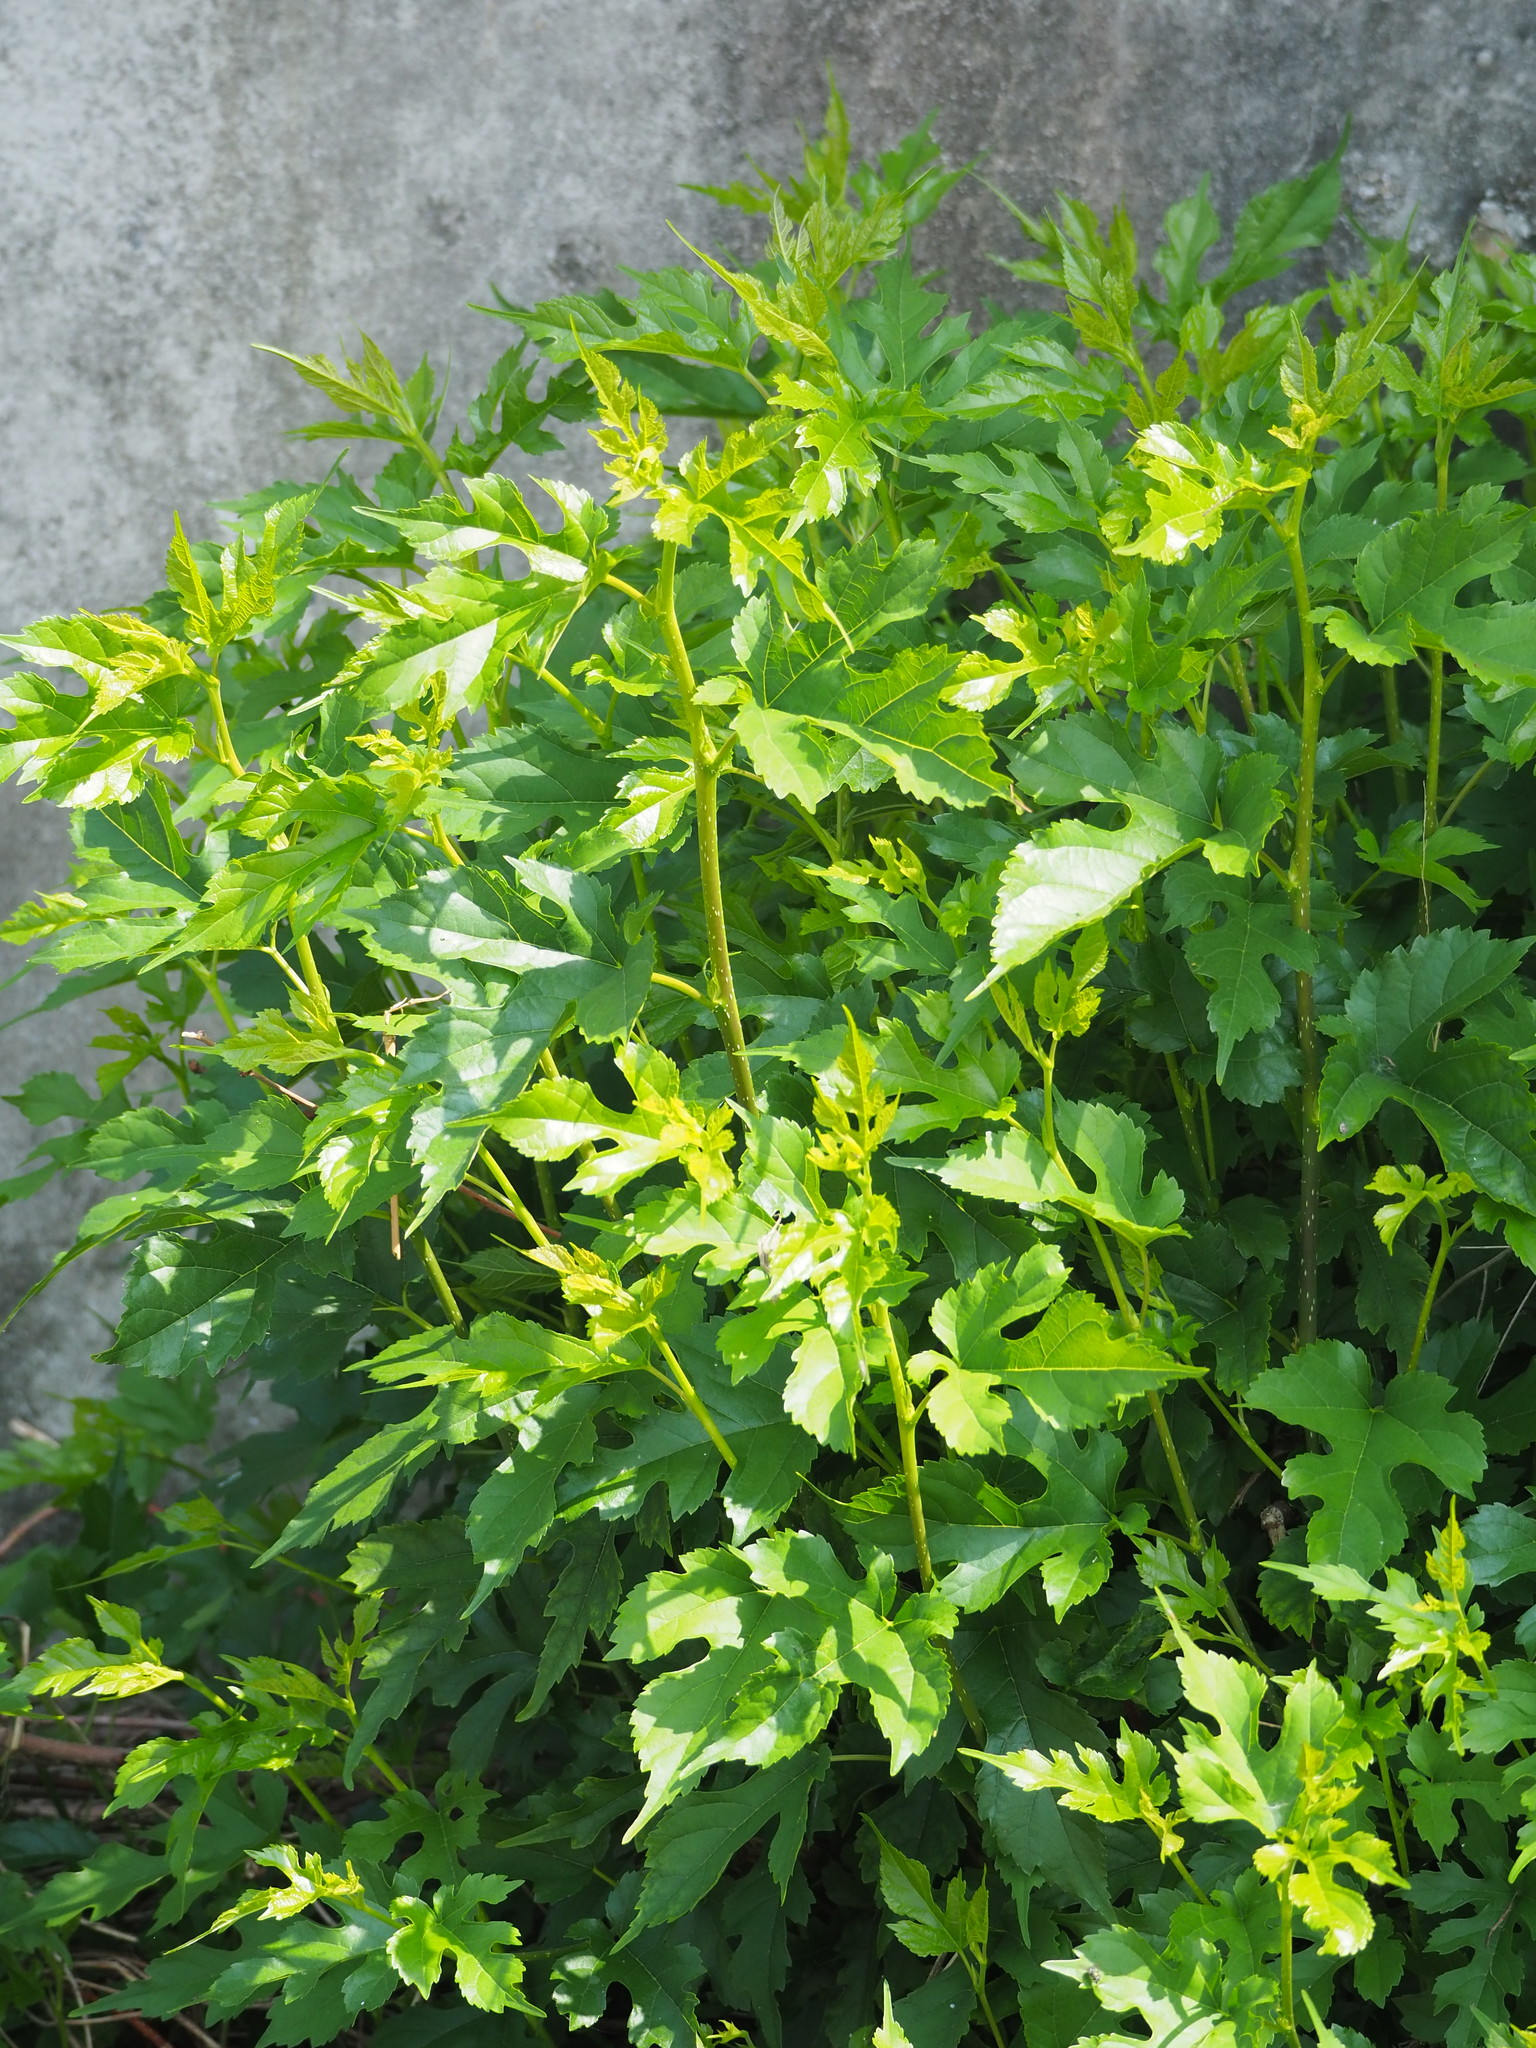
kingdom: Plantae
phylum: Tracheophyta
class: Magnoliopsida
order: Rosales
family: Moraceae
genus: Morus
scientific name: Morus indica
